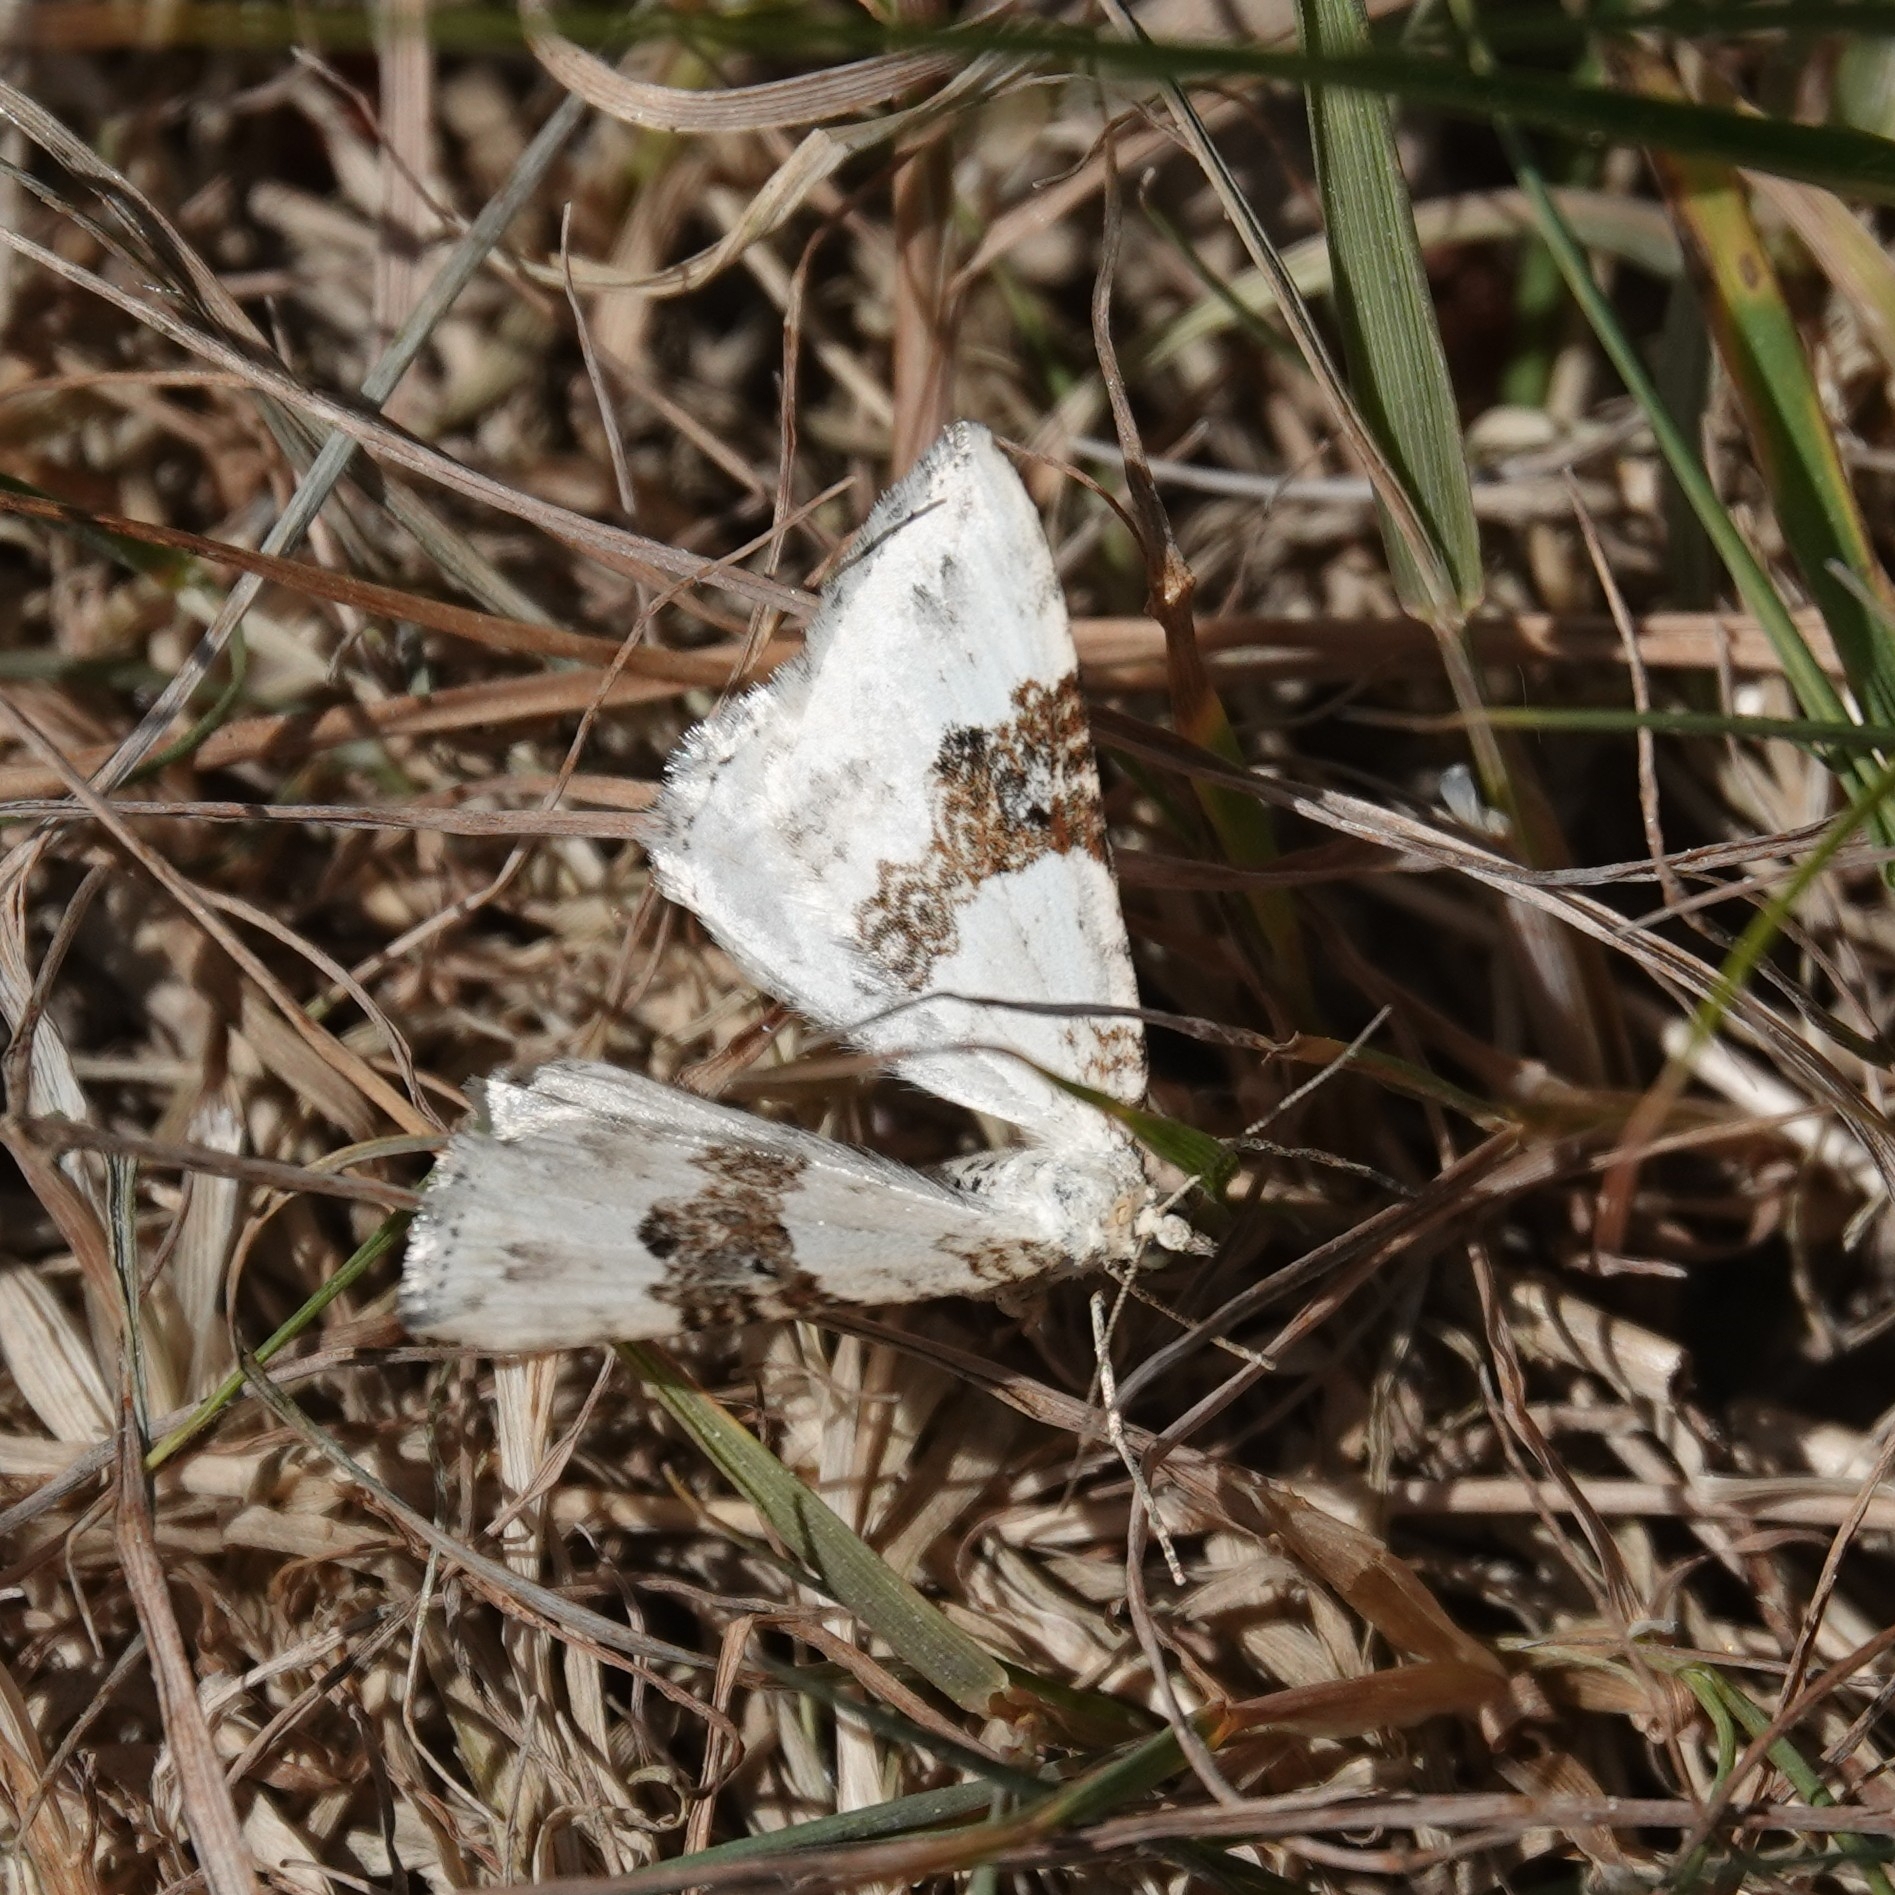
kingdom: Animalia
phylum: Arthropoda
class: Insecta
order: Lepidoptera
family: Geometridae
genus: Xanthorhoe
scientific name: Xanthorhoe montanata
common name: Silver-ground carpet
